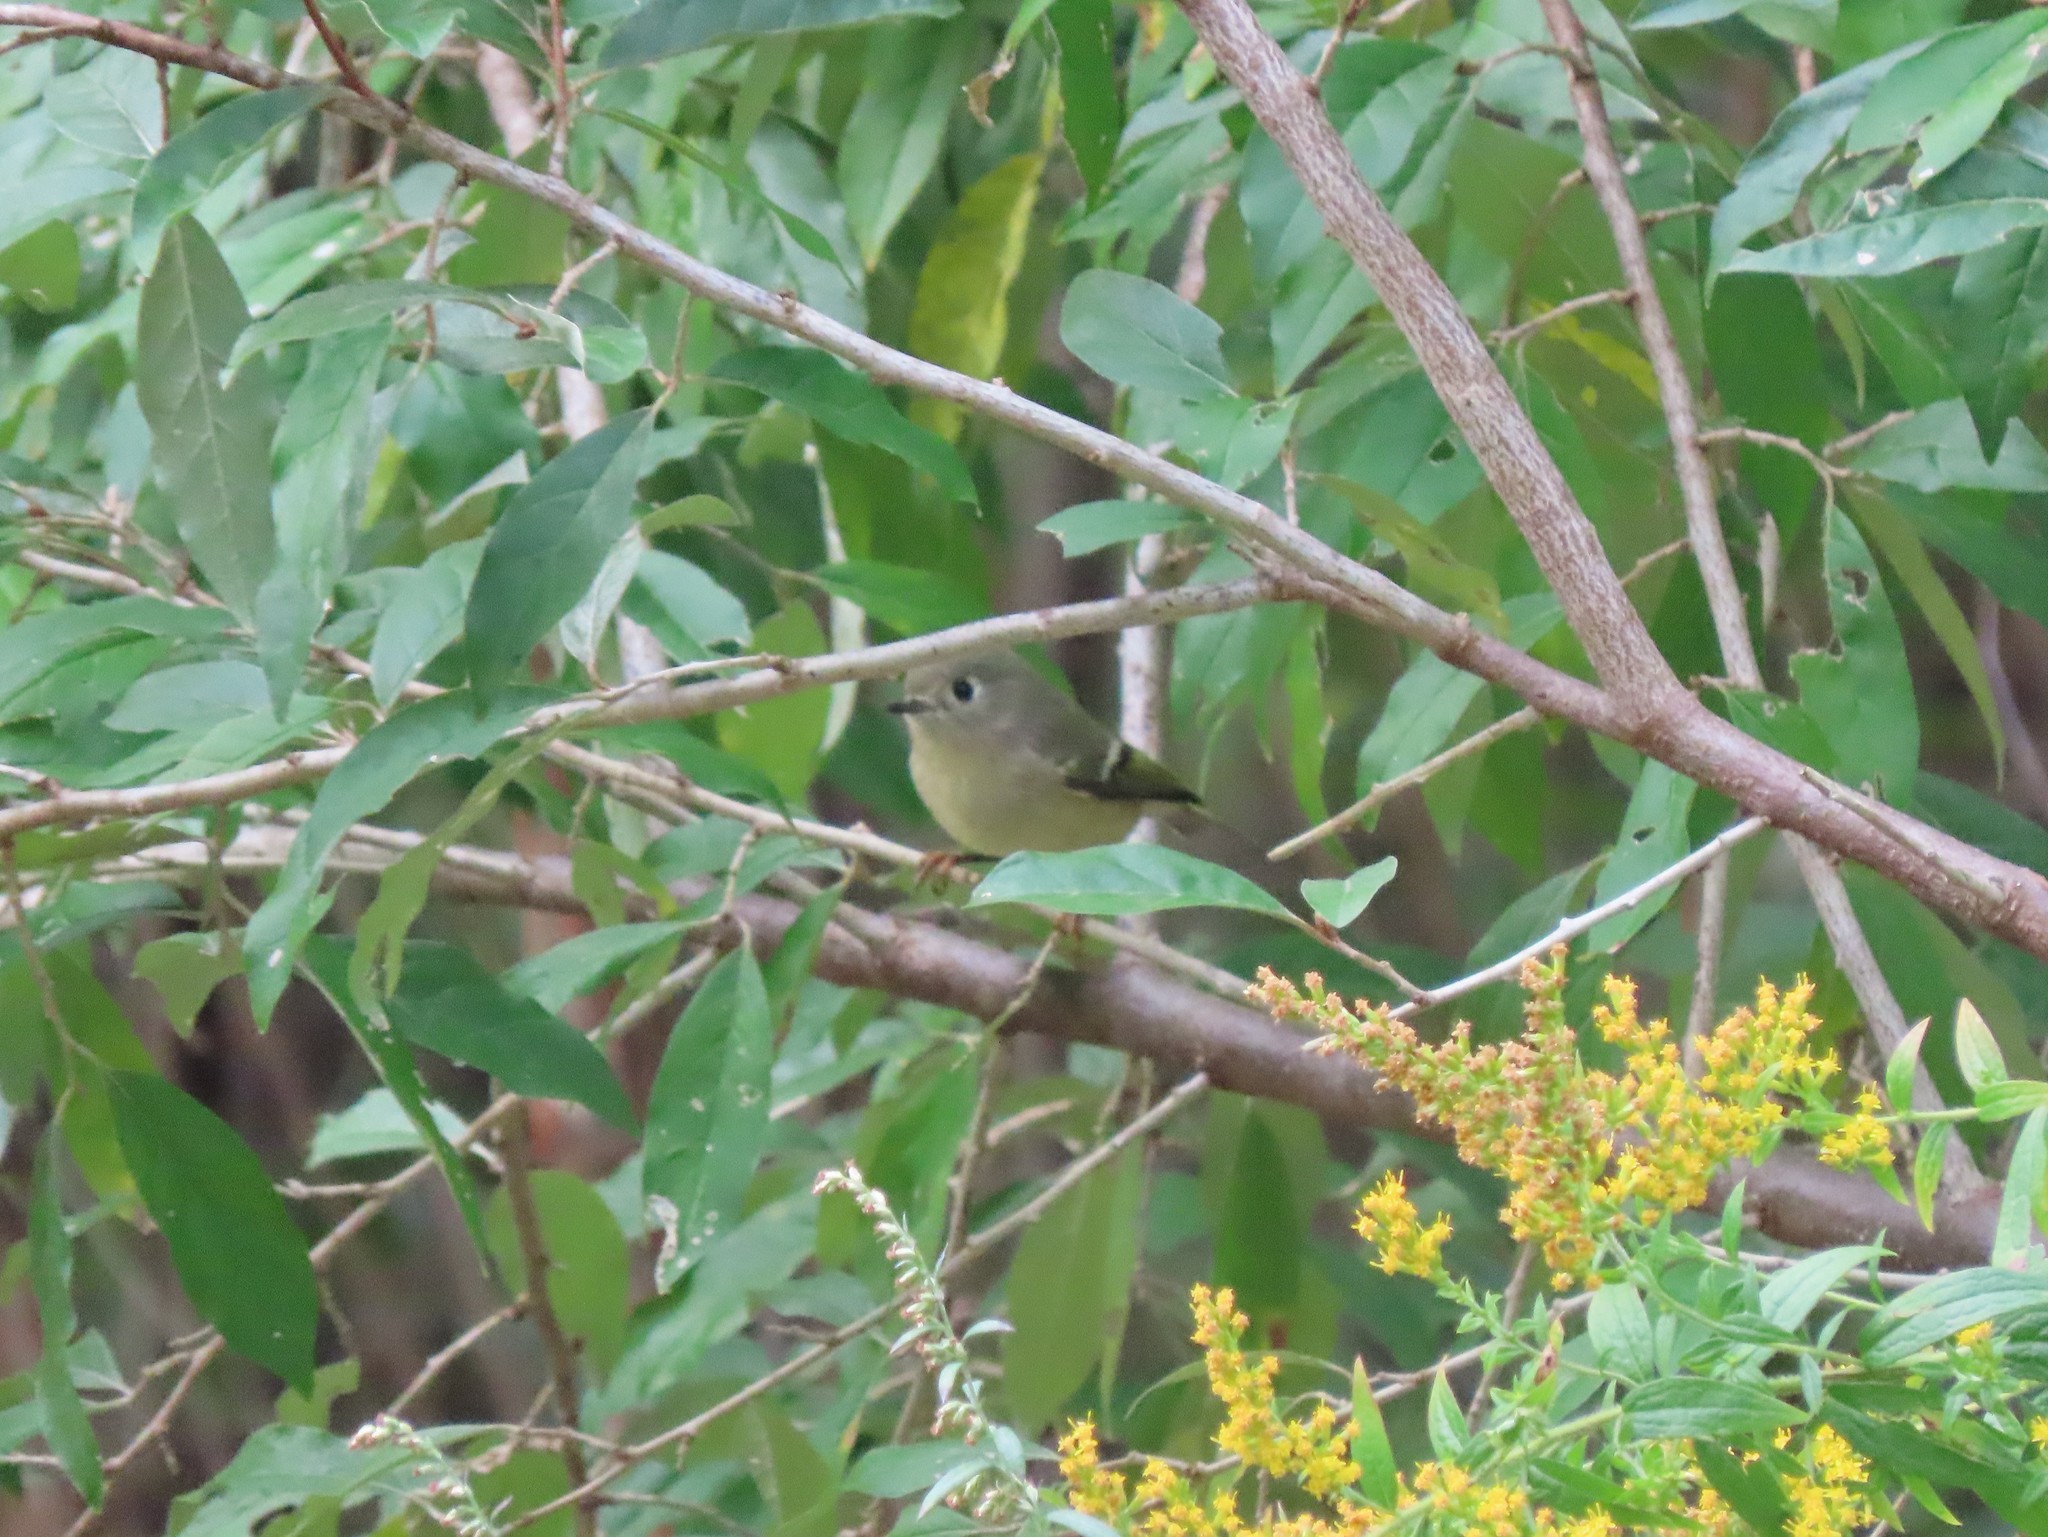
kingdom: Animalia
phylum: Chordata
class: Aves
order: Passeriformes
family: Regulidae
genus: Regulus
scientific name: Regulus calendula
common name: Ruby-crowned kinglet
